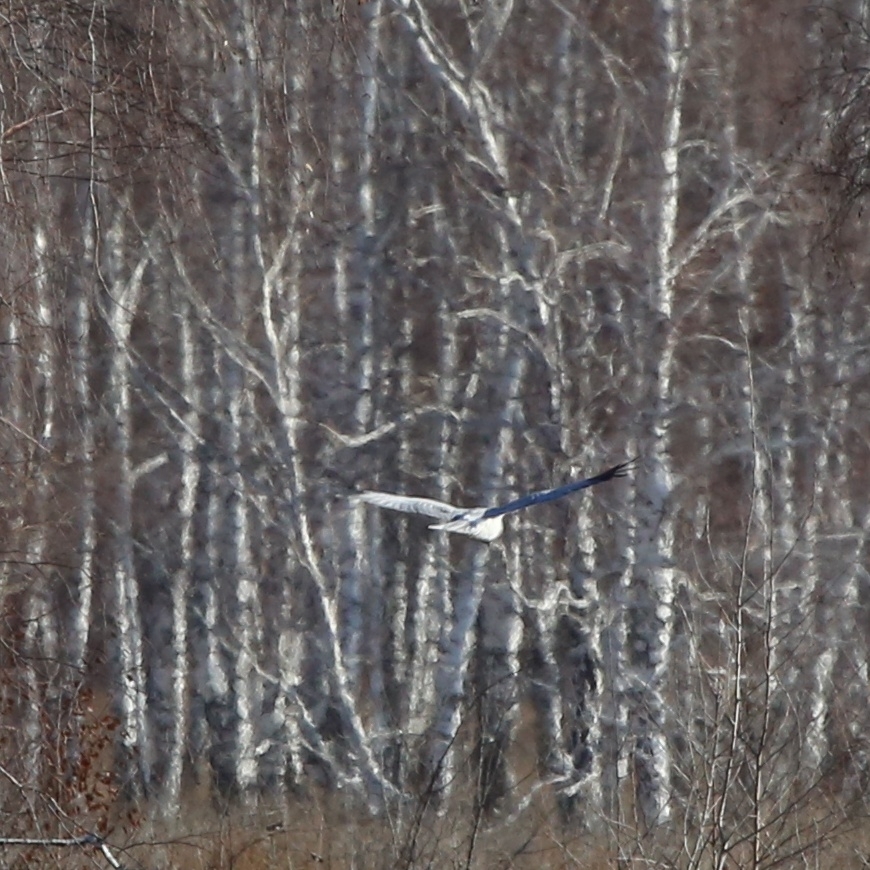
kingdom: Animalia
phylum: Chordata
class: Aves
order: Accipitriformes
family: Accipitridae
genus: Circus
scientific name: Circus cyaneus
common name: Hen harrier
